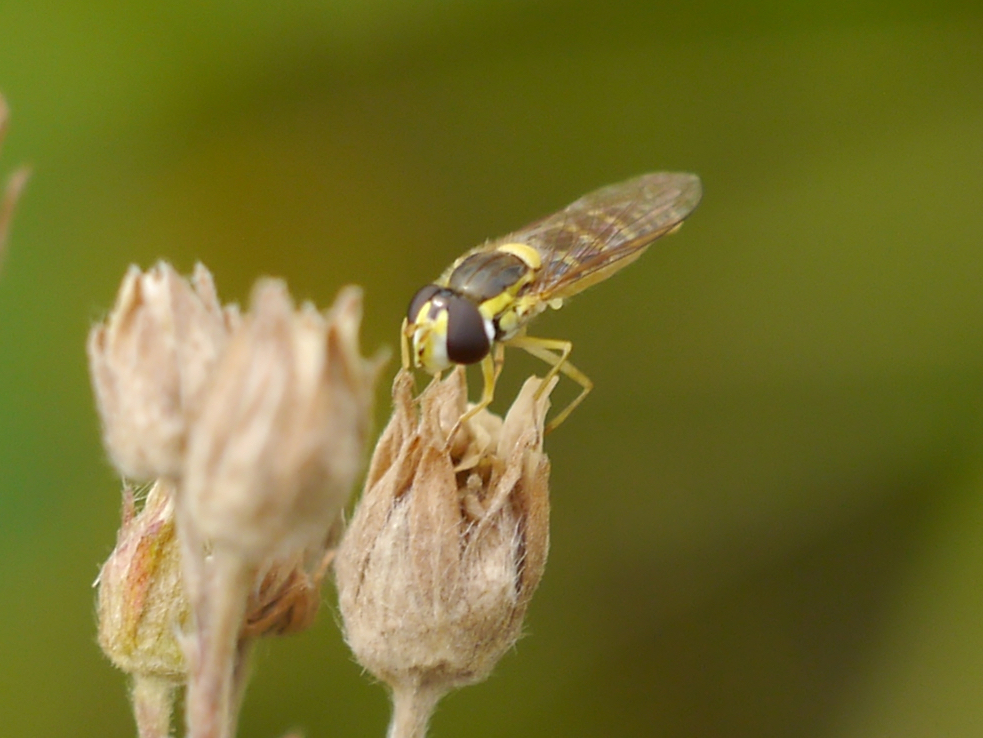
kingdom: Animalia
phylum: Arthropoda
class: Insecta
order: Diptera
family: Syrphidae
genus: Sphaerophoria
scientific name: Sphaerophoria
